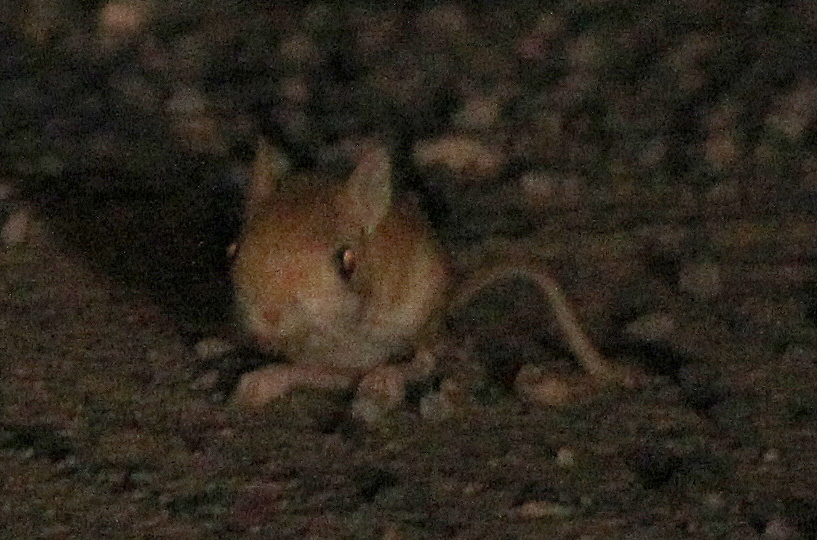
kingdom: Animalia
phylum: Chordata
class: Mammalia
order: Rodentia
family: Dipodidae
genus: Jaculus
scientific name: Jaculus jaculus
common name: Lesser egyptian jerboa
